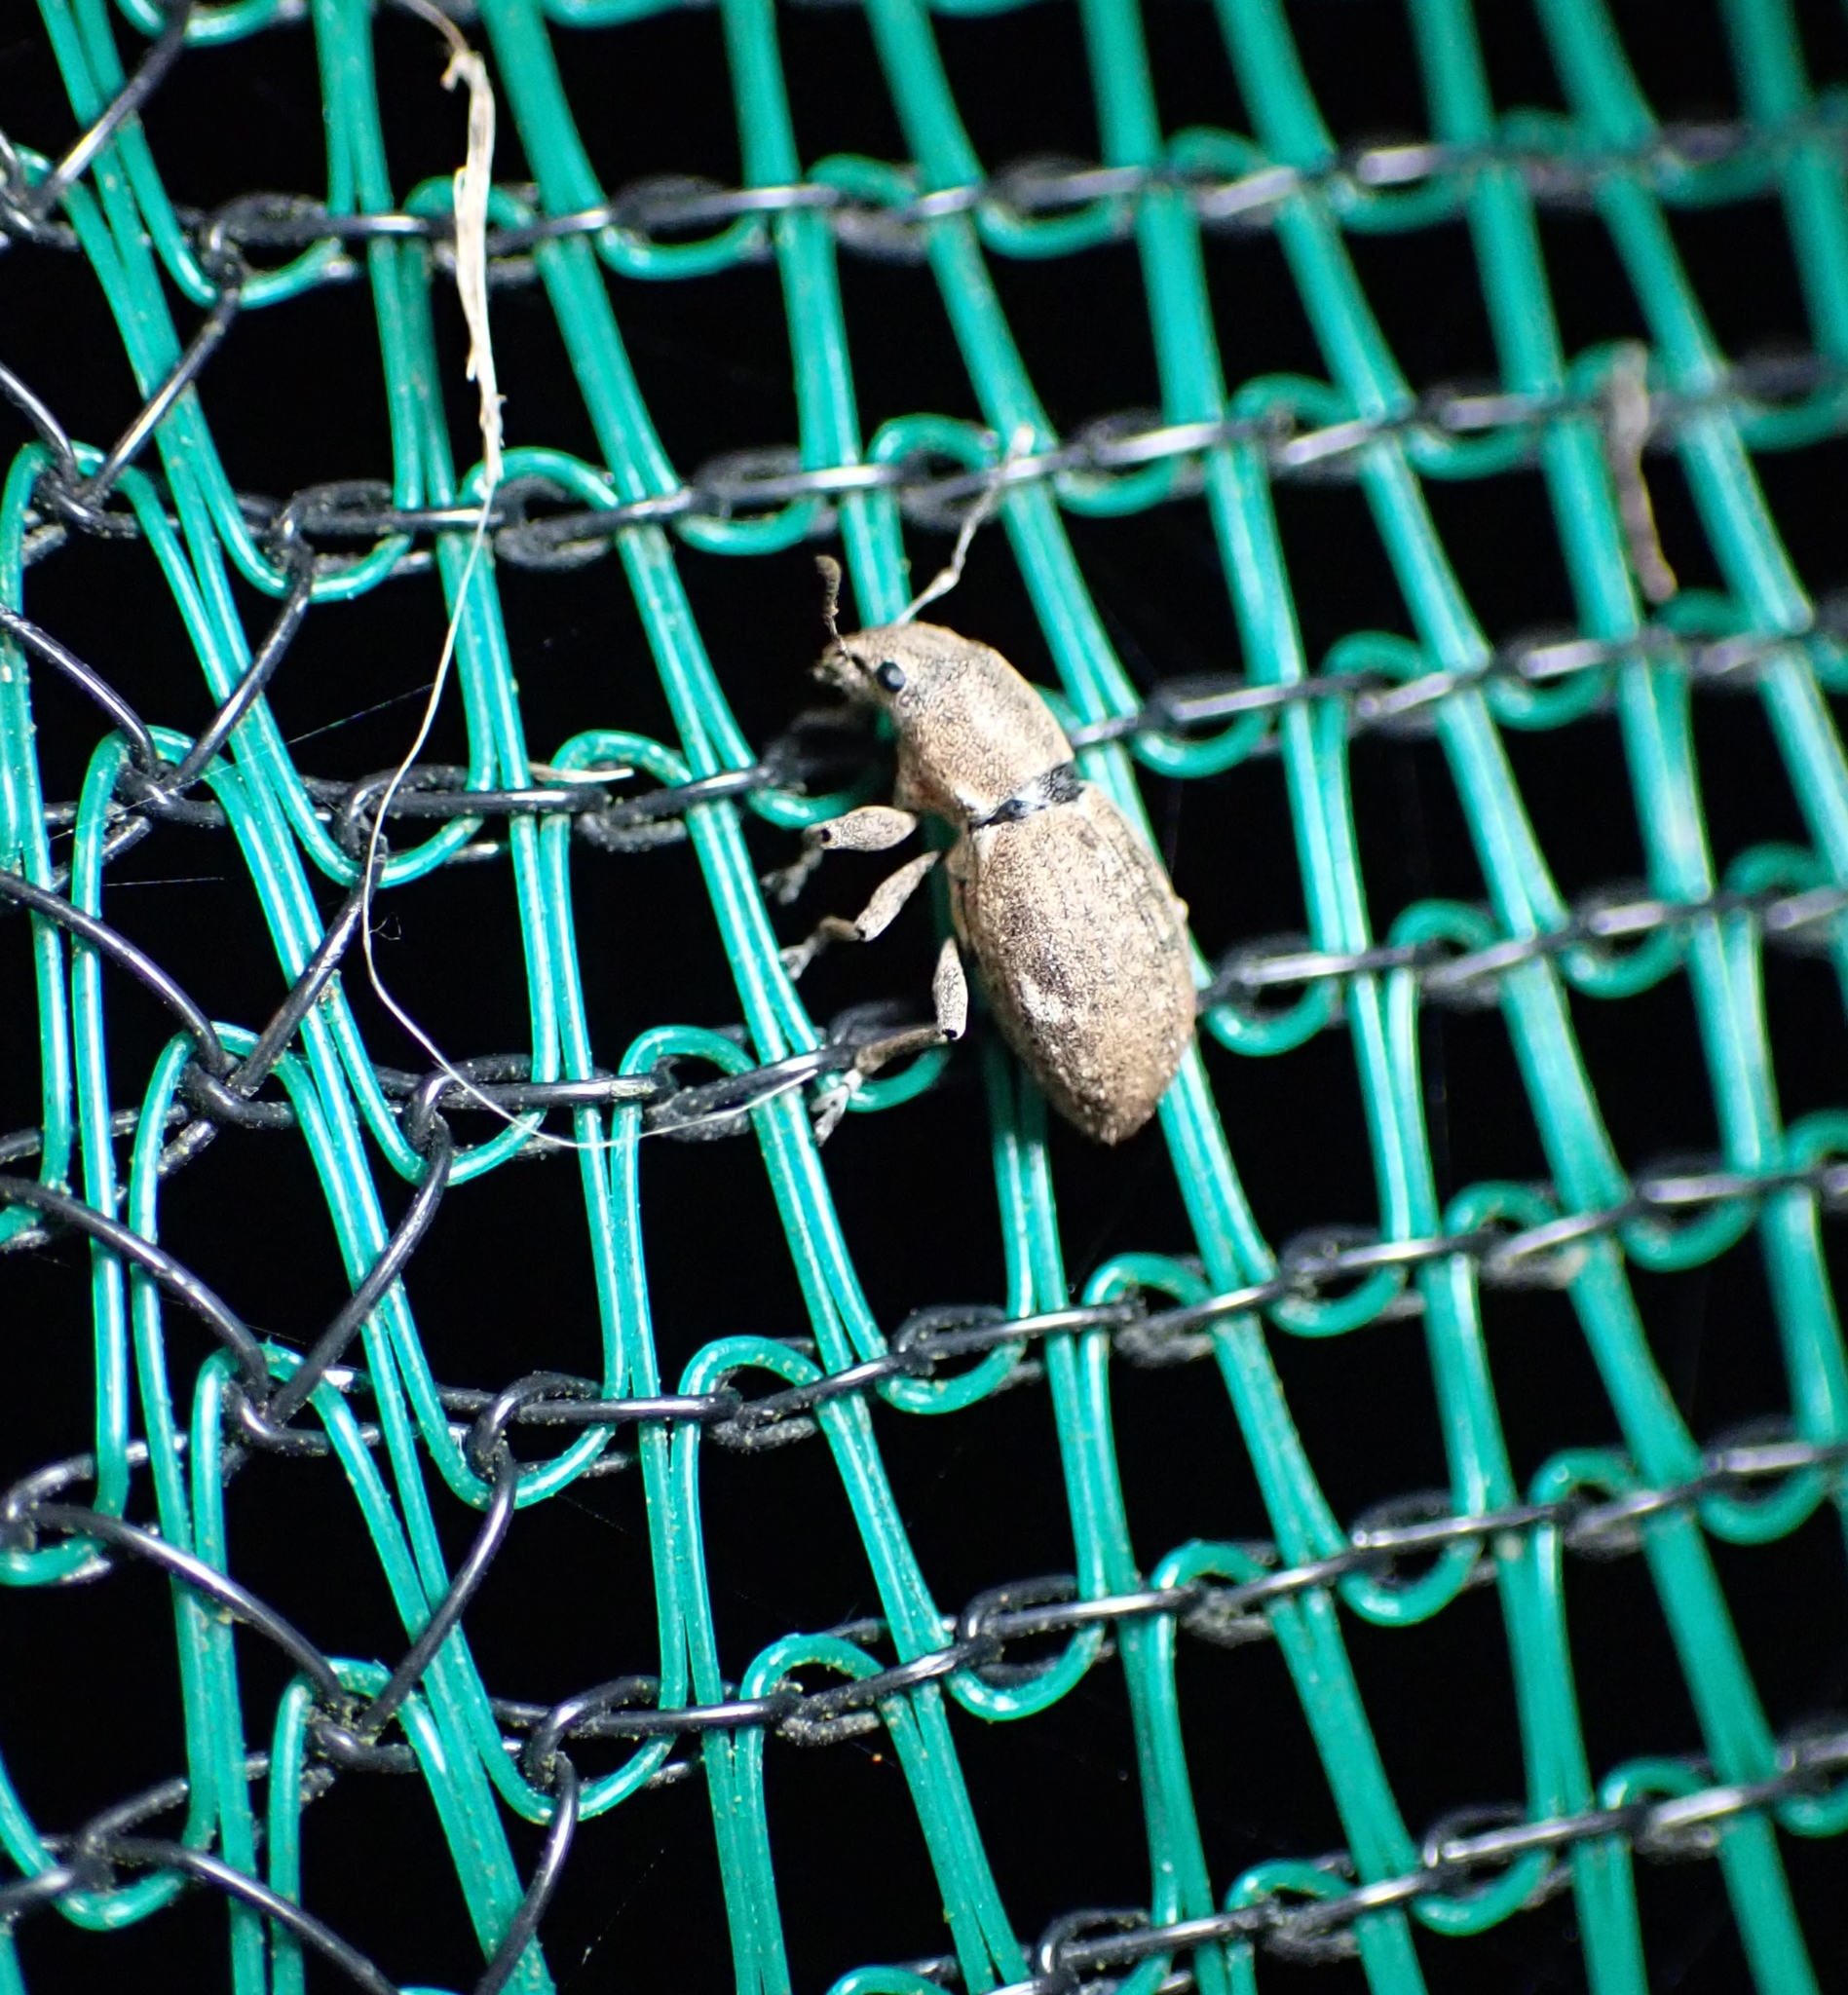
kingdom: Animalia
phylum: Arthropoda
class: Insecta
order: Coleoptera
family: Curculionidae
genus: Naupactus
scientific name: Naupactus cervinus
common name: Fuller rose beetle
